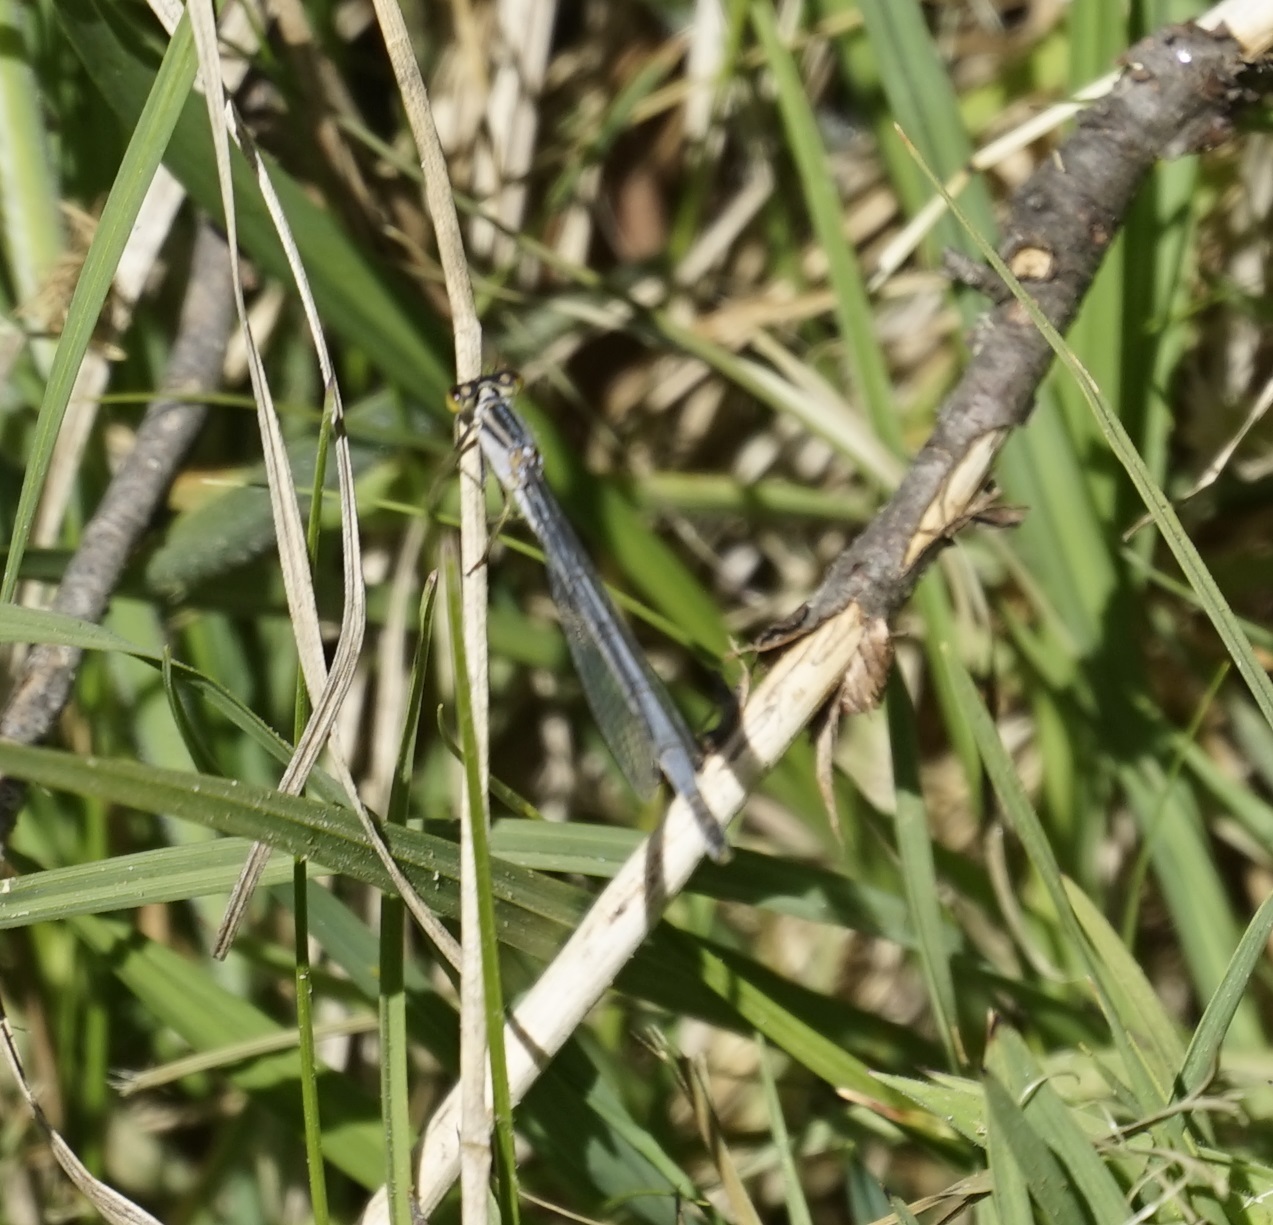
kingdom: Animalia
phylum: Arthropoda
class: Insecta
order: Odonata
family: Coenagrionidae
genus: Ischnura
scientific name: Ischnura heterosticta
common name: Common bluetail
